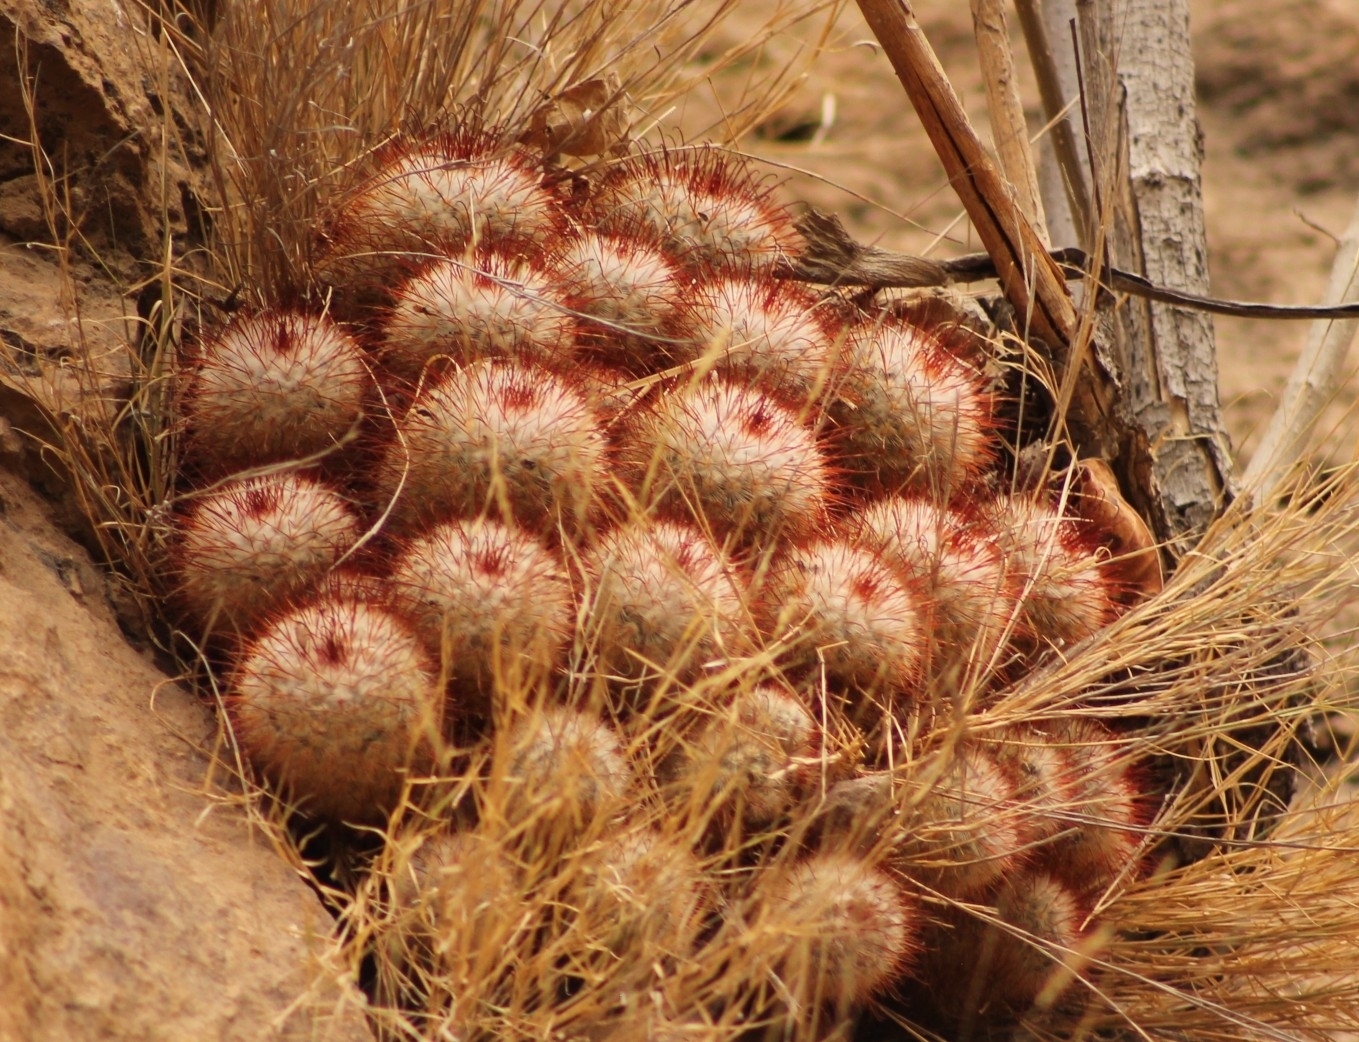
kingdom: Plantae
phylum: Tracheophyta
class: Magnoliopsida
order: Caryophyllales
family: Cactaceae
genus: Mammillaria
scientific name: Mammillaria bombycina
